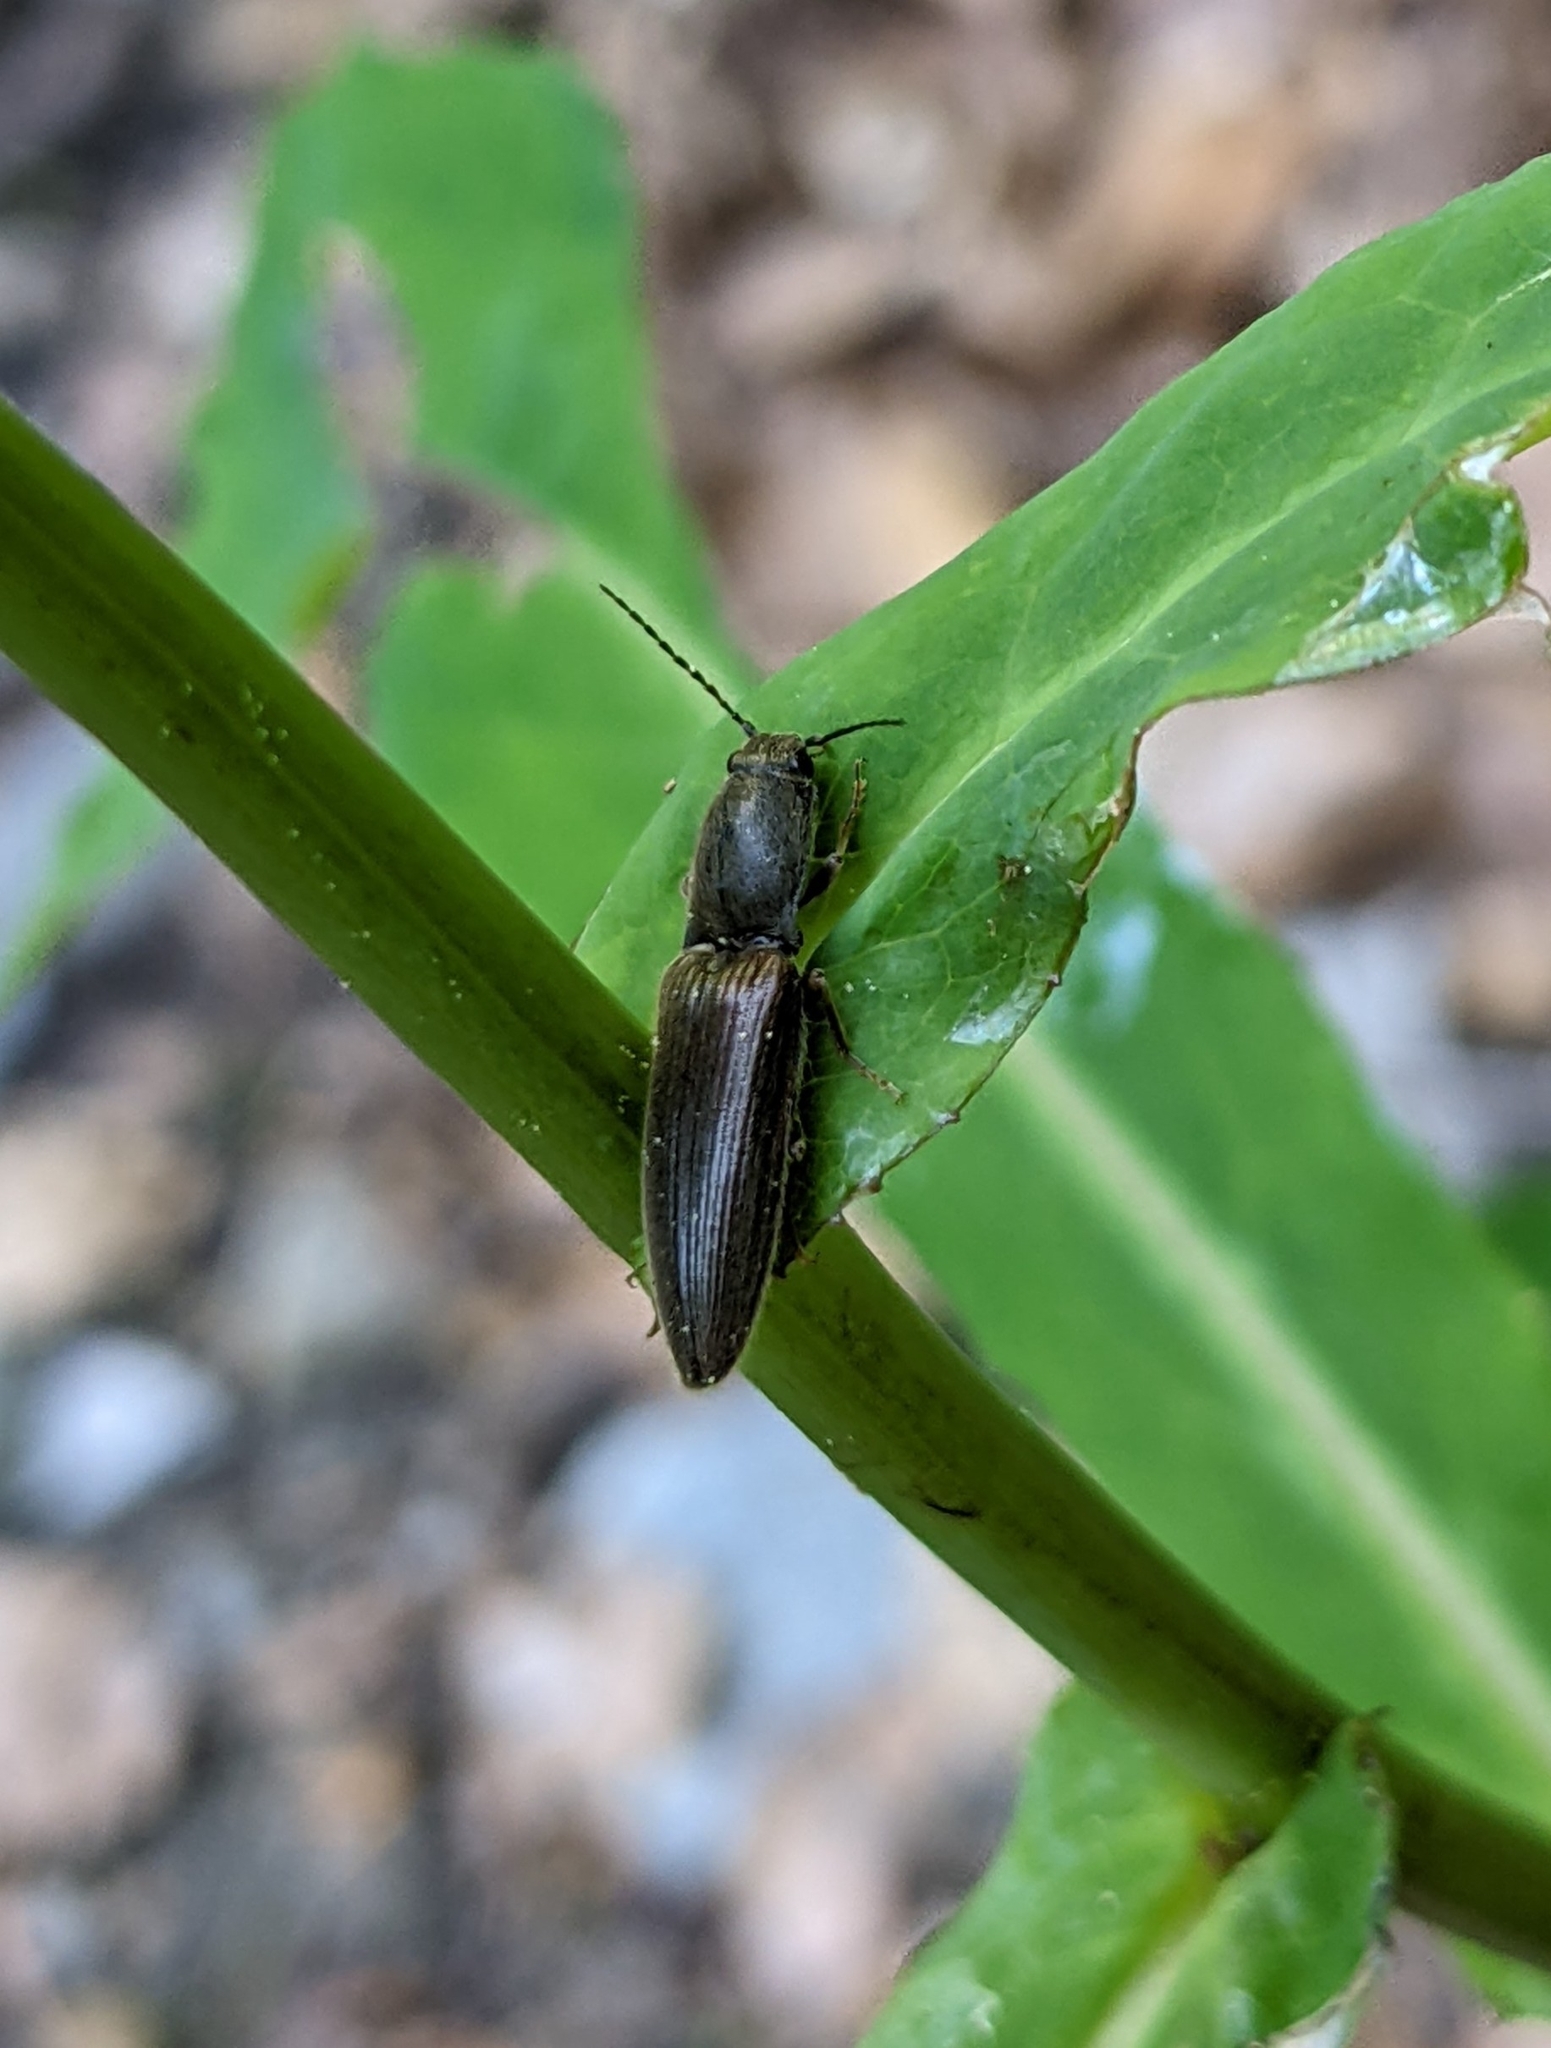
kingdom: Animalia
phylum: Arthropoda
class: Insecta
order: Coleoptera
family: Elateridae
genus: Athous
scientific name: Athous haemorrhoidalis
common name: Red-brown click beetle
